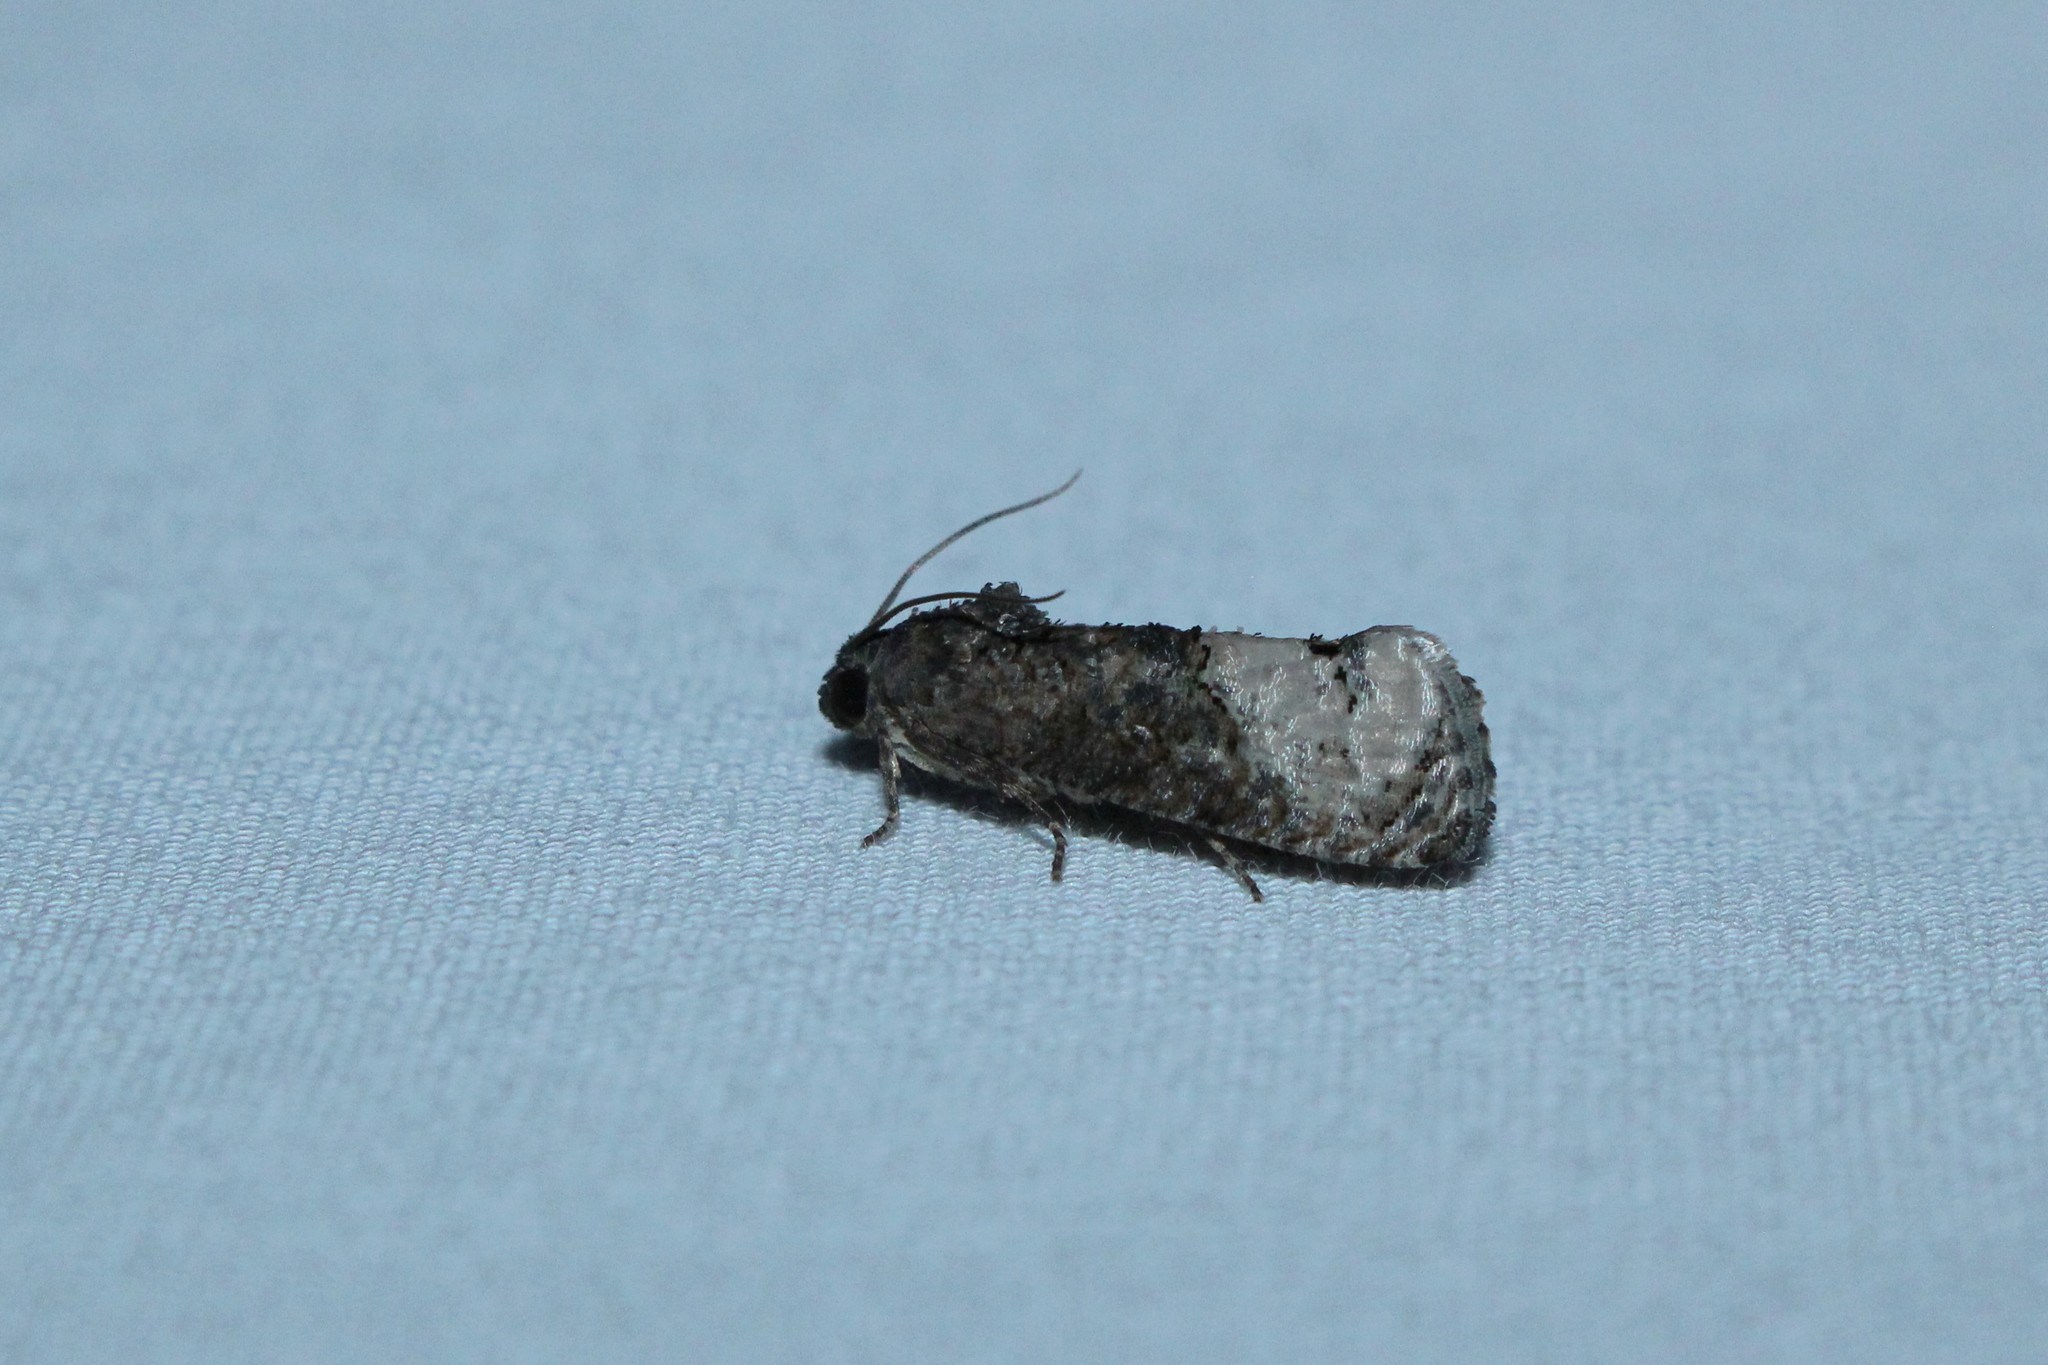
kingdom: Animalia
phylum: Arthropoda
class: Insecta
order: Lepidoptera
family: Tortricidae
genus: Ecdytolopha
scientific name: Ecdytolopha insiticiana
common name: Locust twig borer moth
